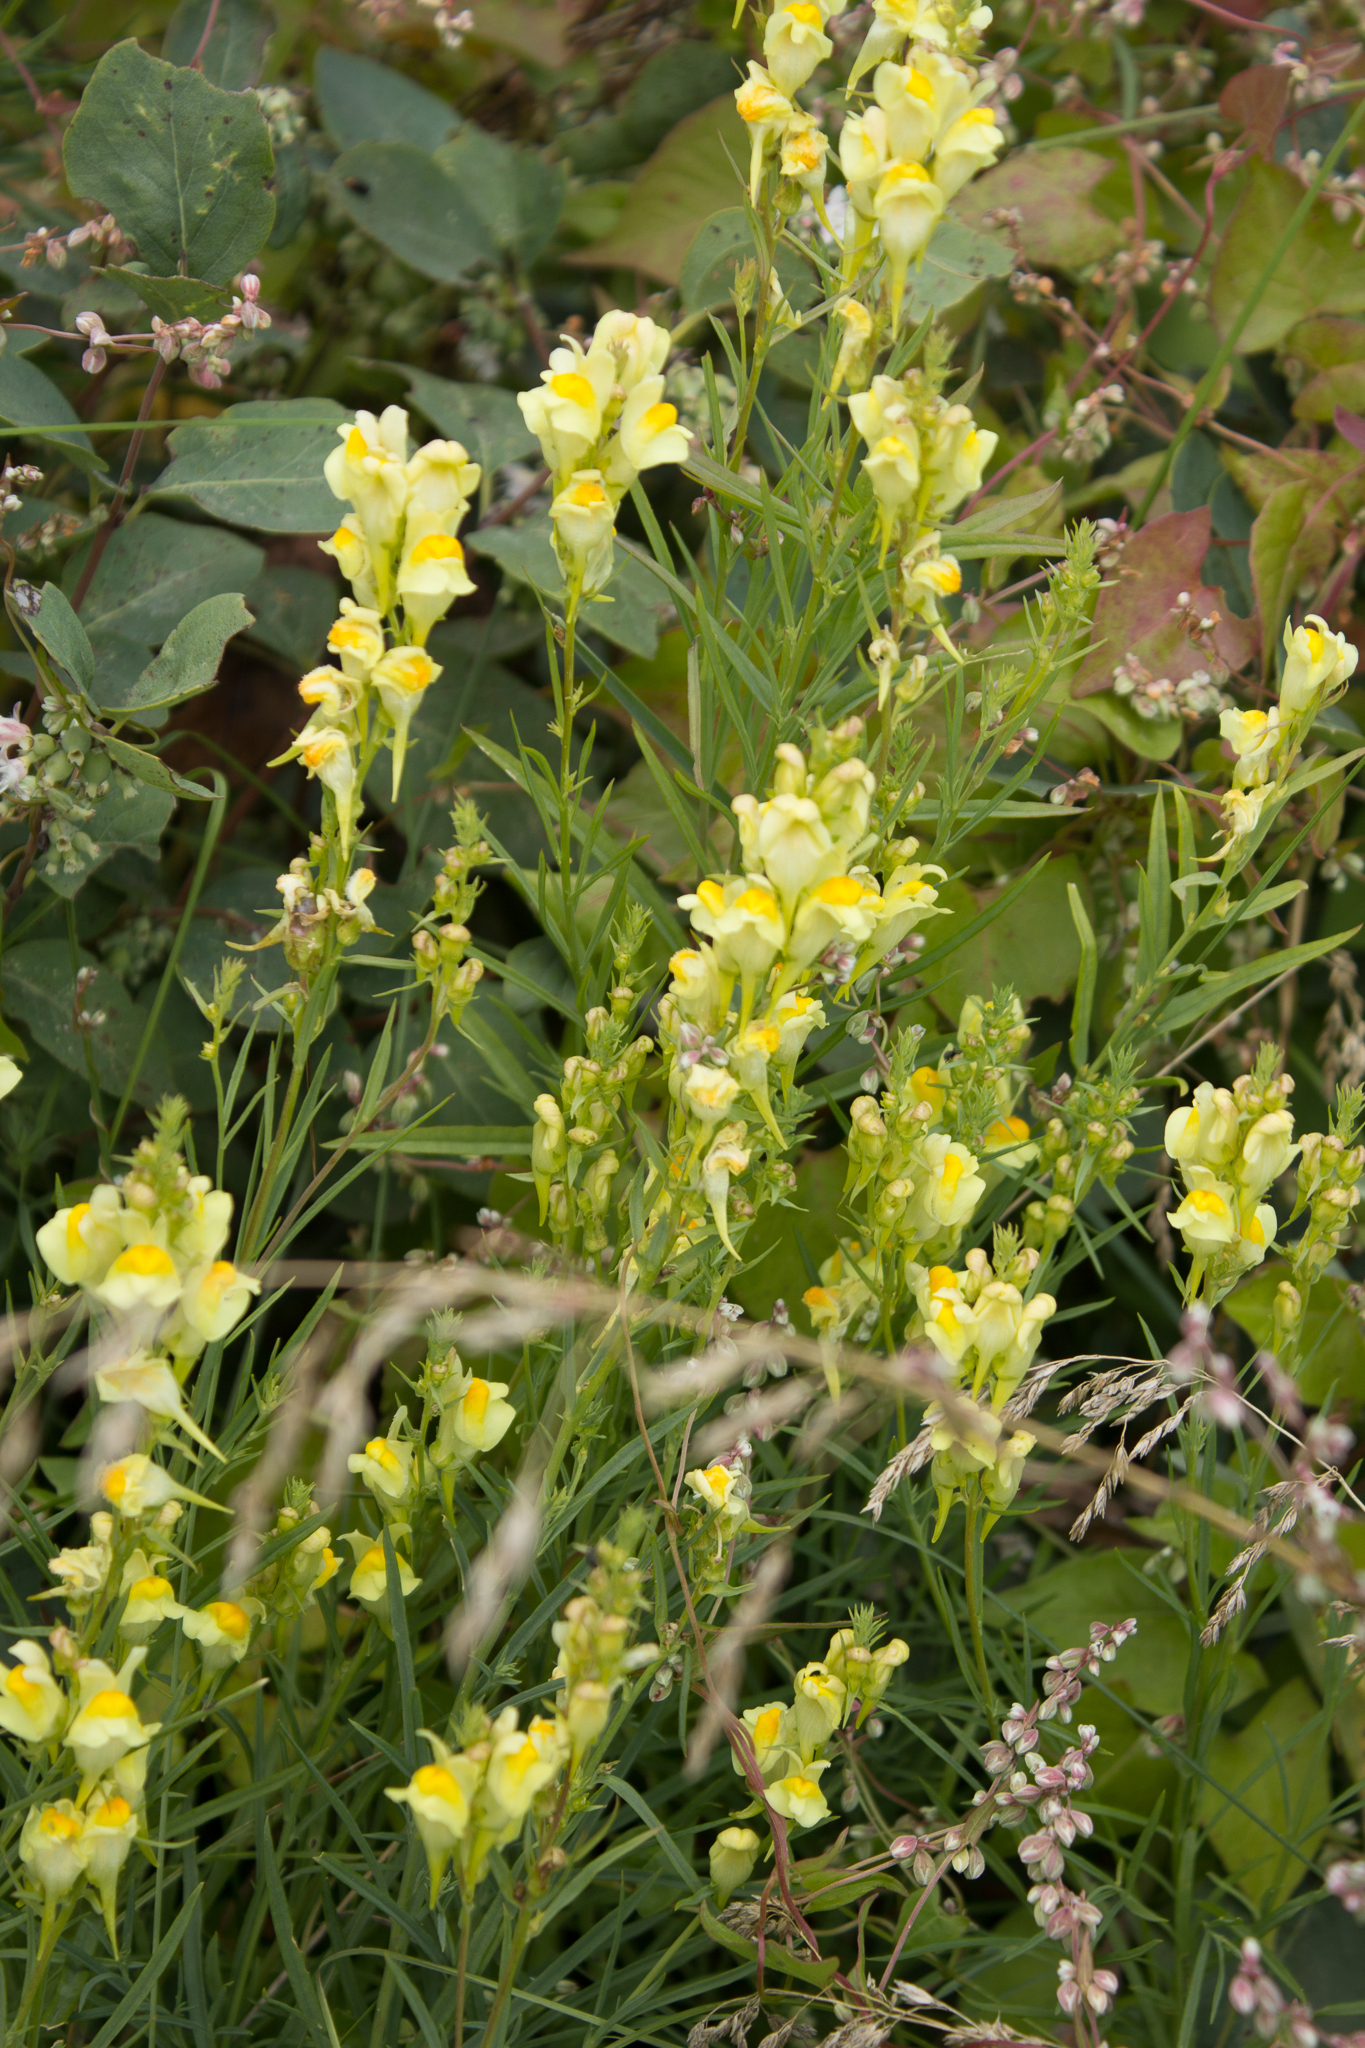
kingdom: Plantae
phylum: Tracheophyta
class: Magnoliopsida
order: Lamiales
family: Plantaginaceae
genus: Linaria
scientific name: Linaria vulgaris
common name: Butter and eggs
